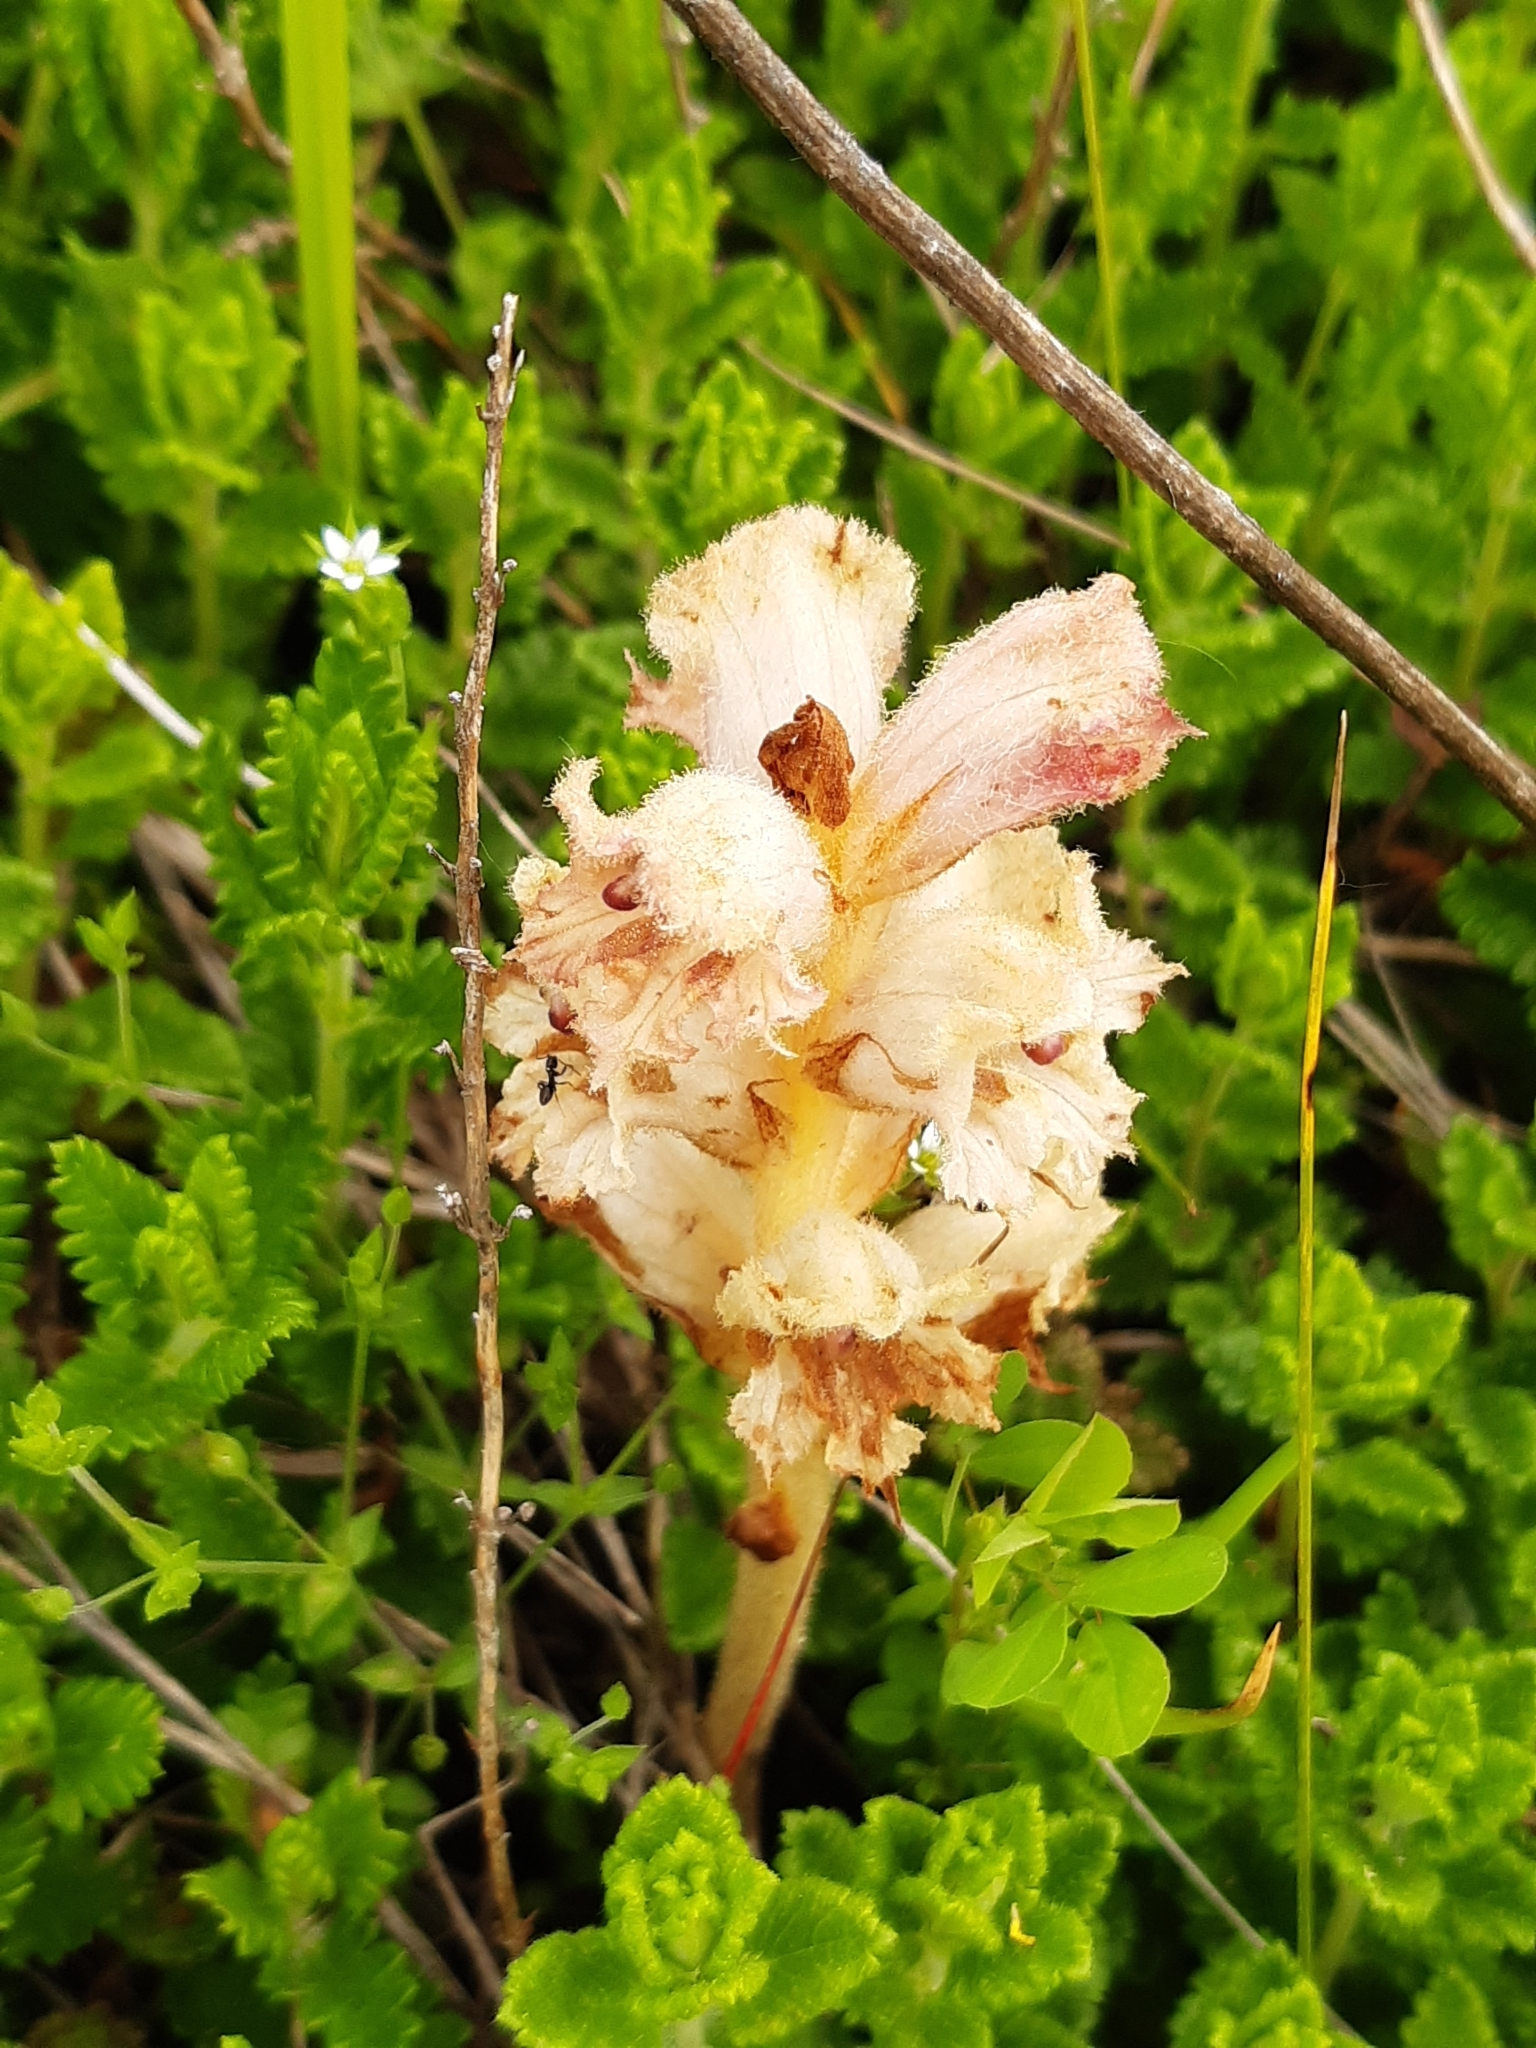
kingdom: Plantae
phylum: Tracheophyta
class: Magnoliopsida
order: Lamiales
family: Orobanchaceae
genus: Orobanche
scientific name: Orobanche teucrii
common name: Germander broomrape
